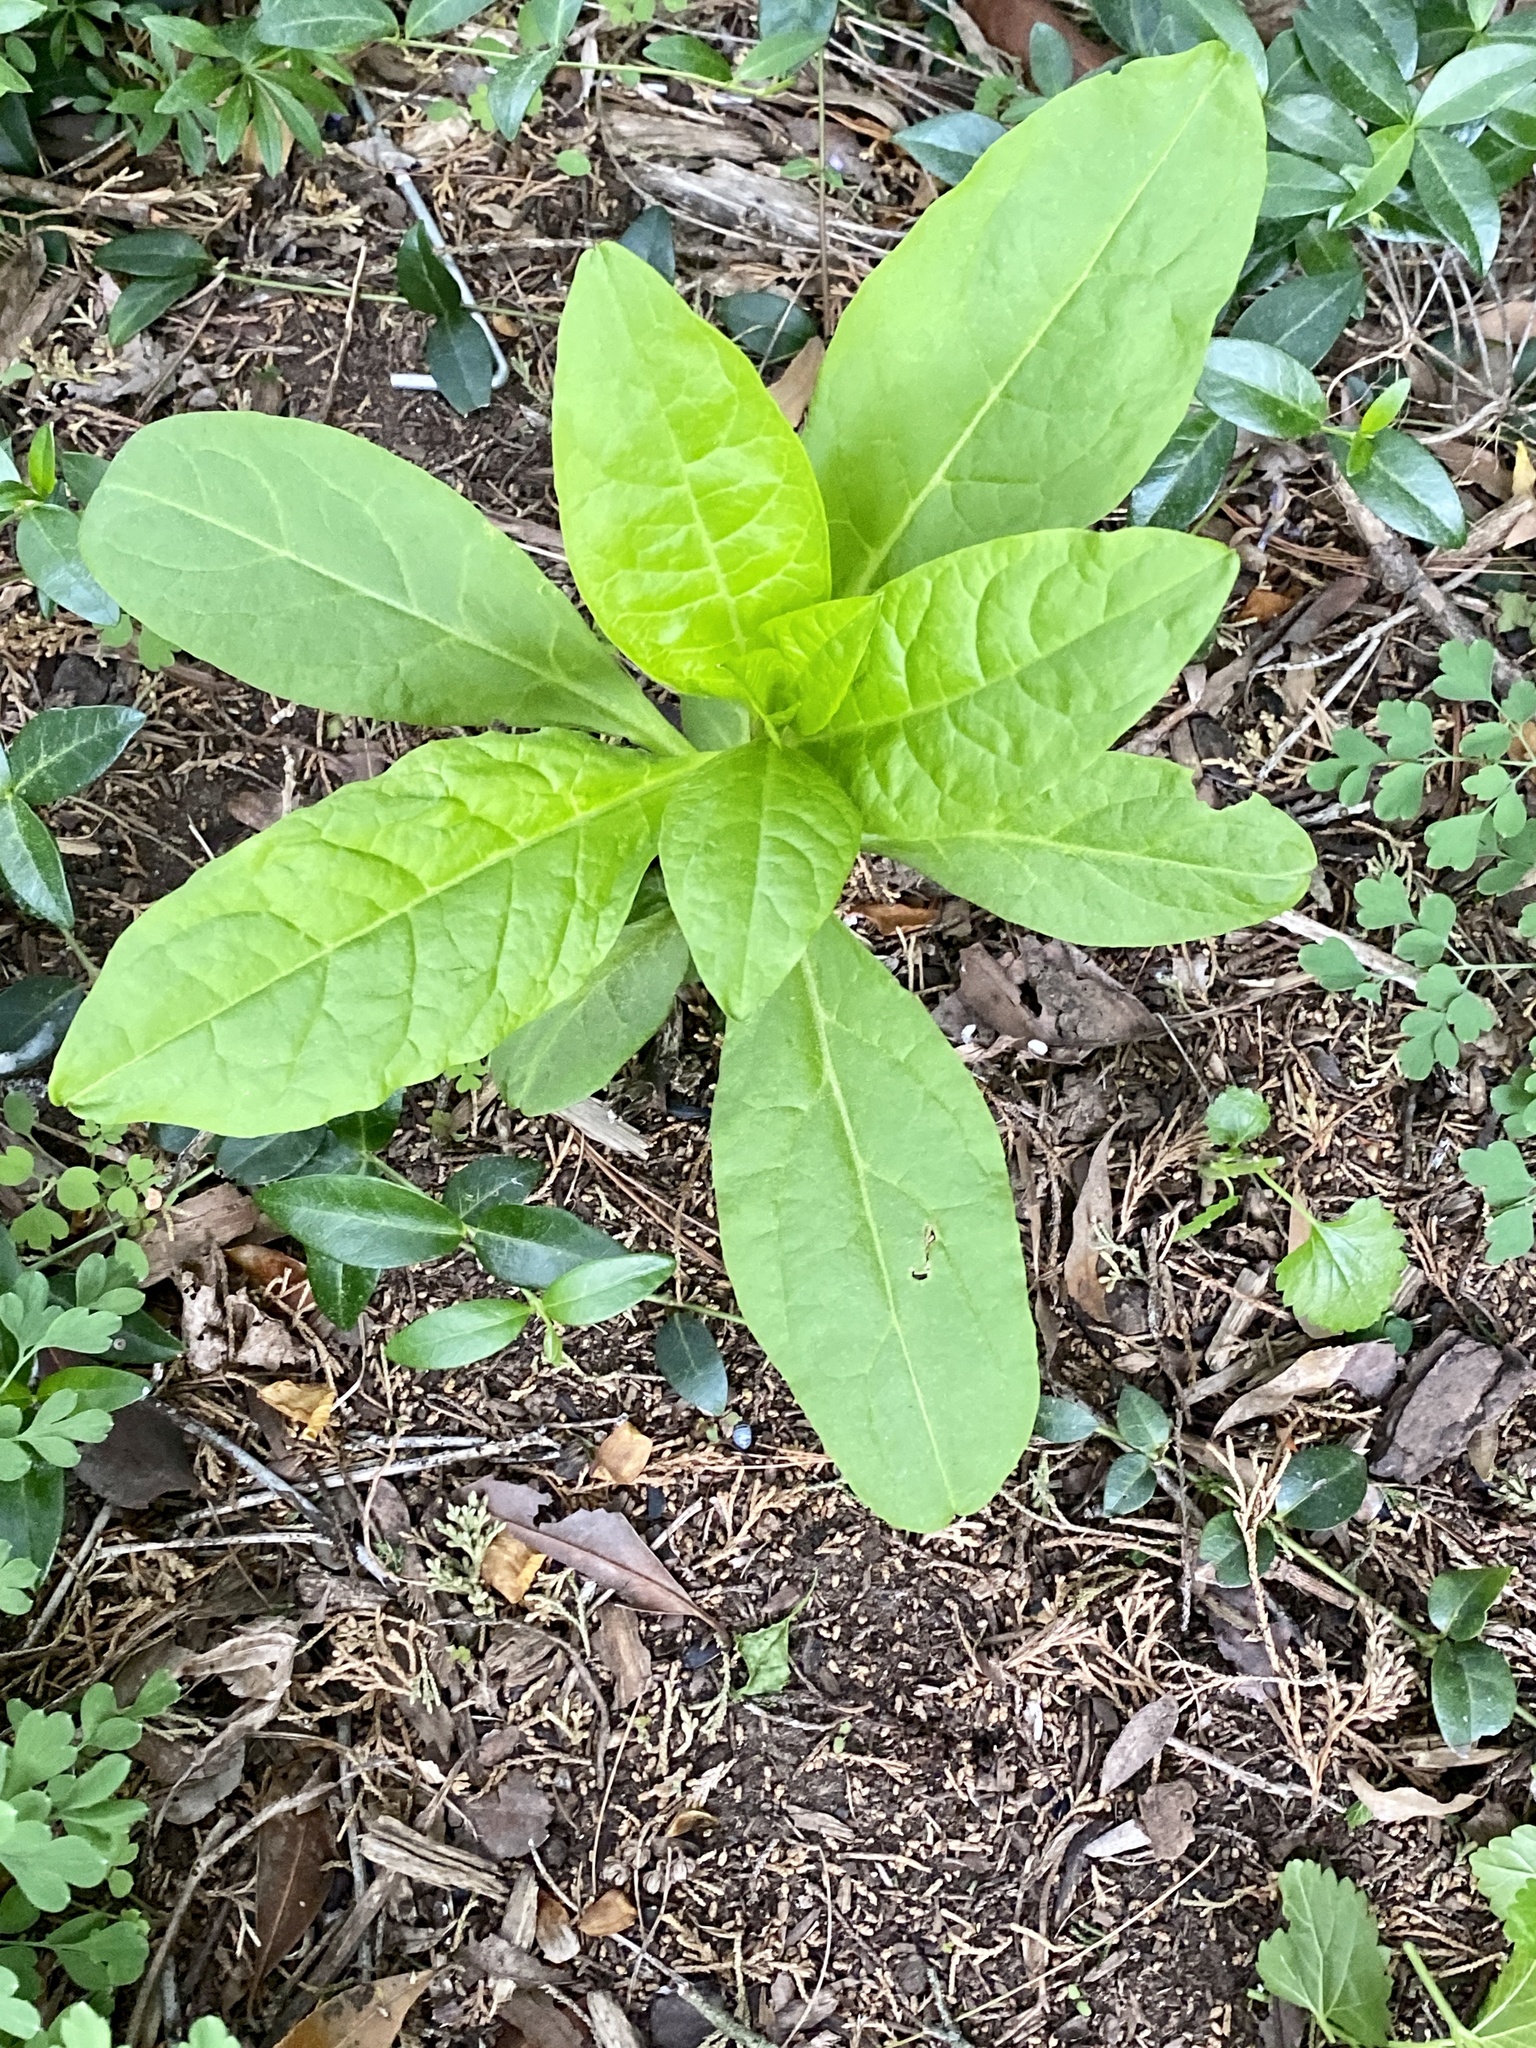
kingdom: Plantae
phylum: Tracheophyta
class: Magnoliopsida
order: Caryophyllales
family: Phytolaccaceae
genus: Phytolacca
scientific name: Phytolacca americana
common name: American pokeweed
